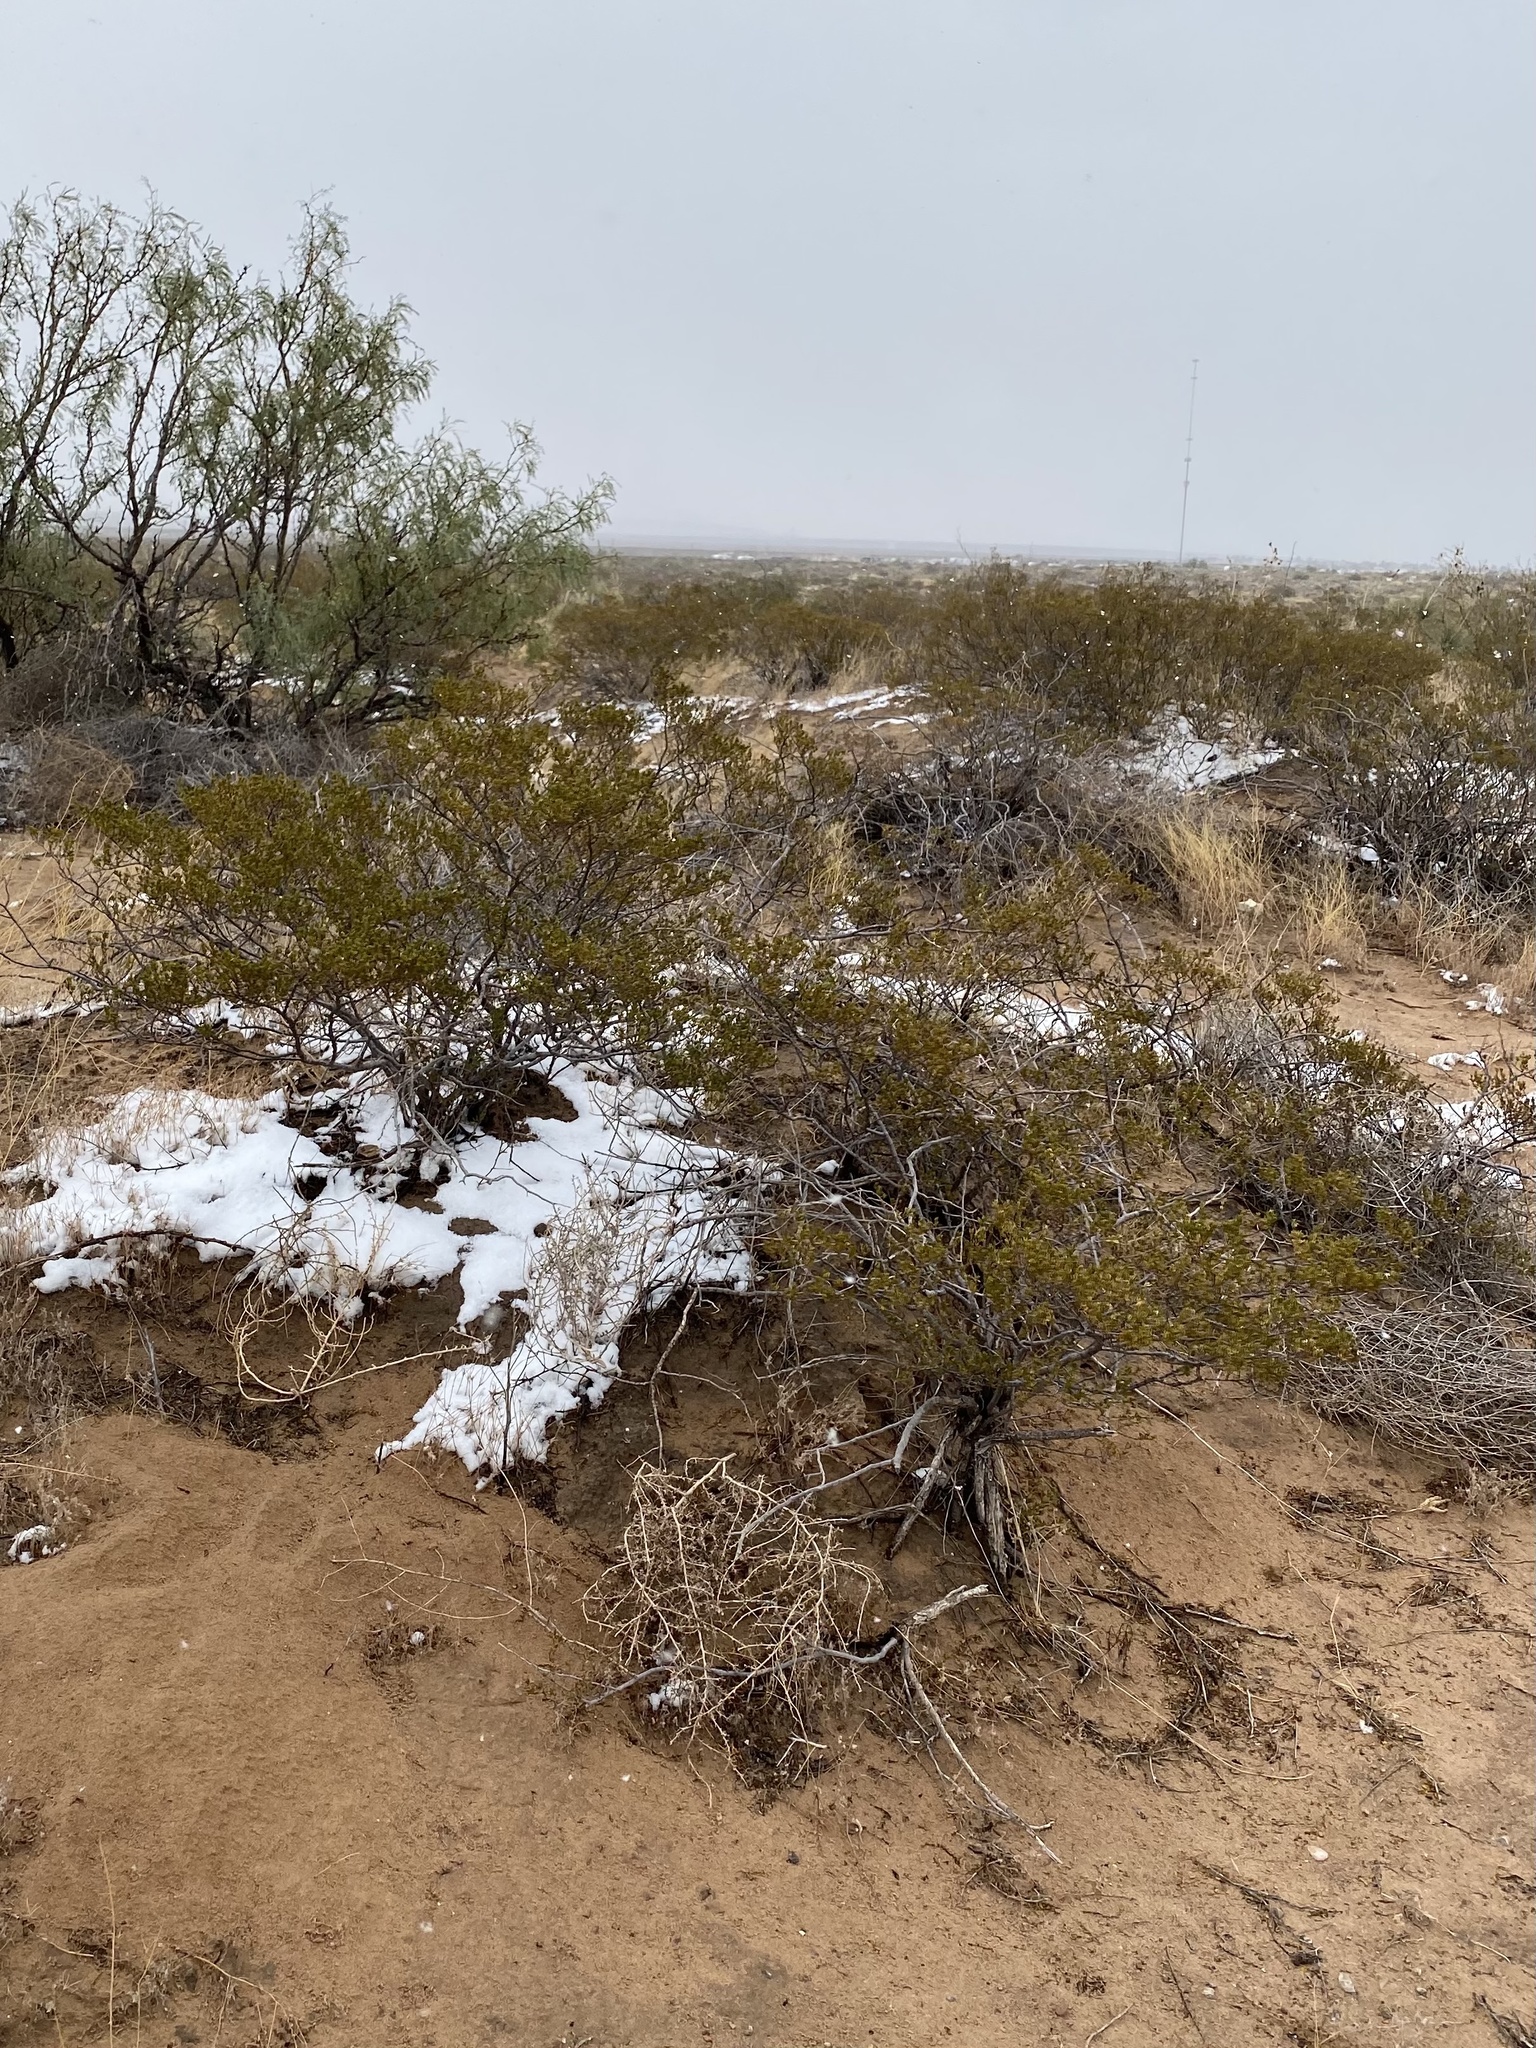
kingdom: Plantae
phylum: Tracheophyta
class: Magnoliopsida
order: Zygophyllales
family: Zygophyllaceae
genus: Larrea
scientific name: Larrea tridentata
